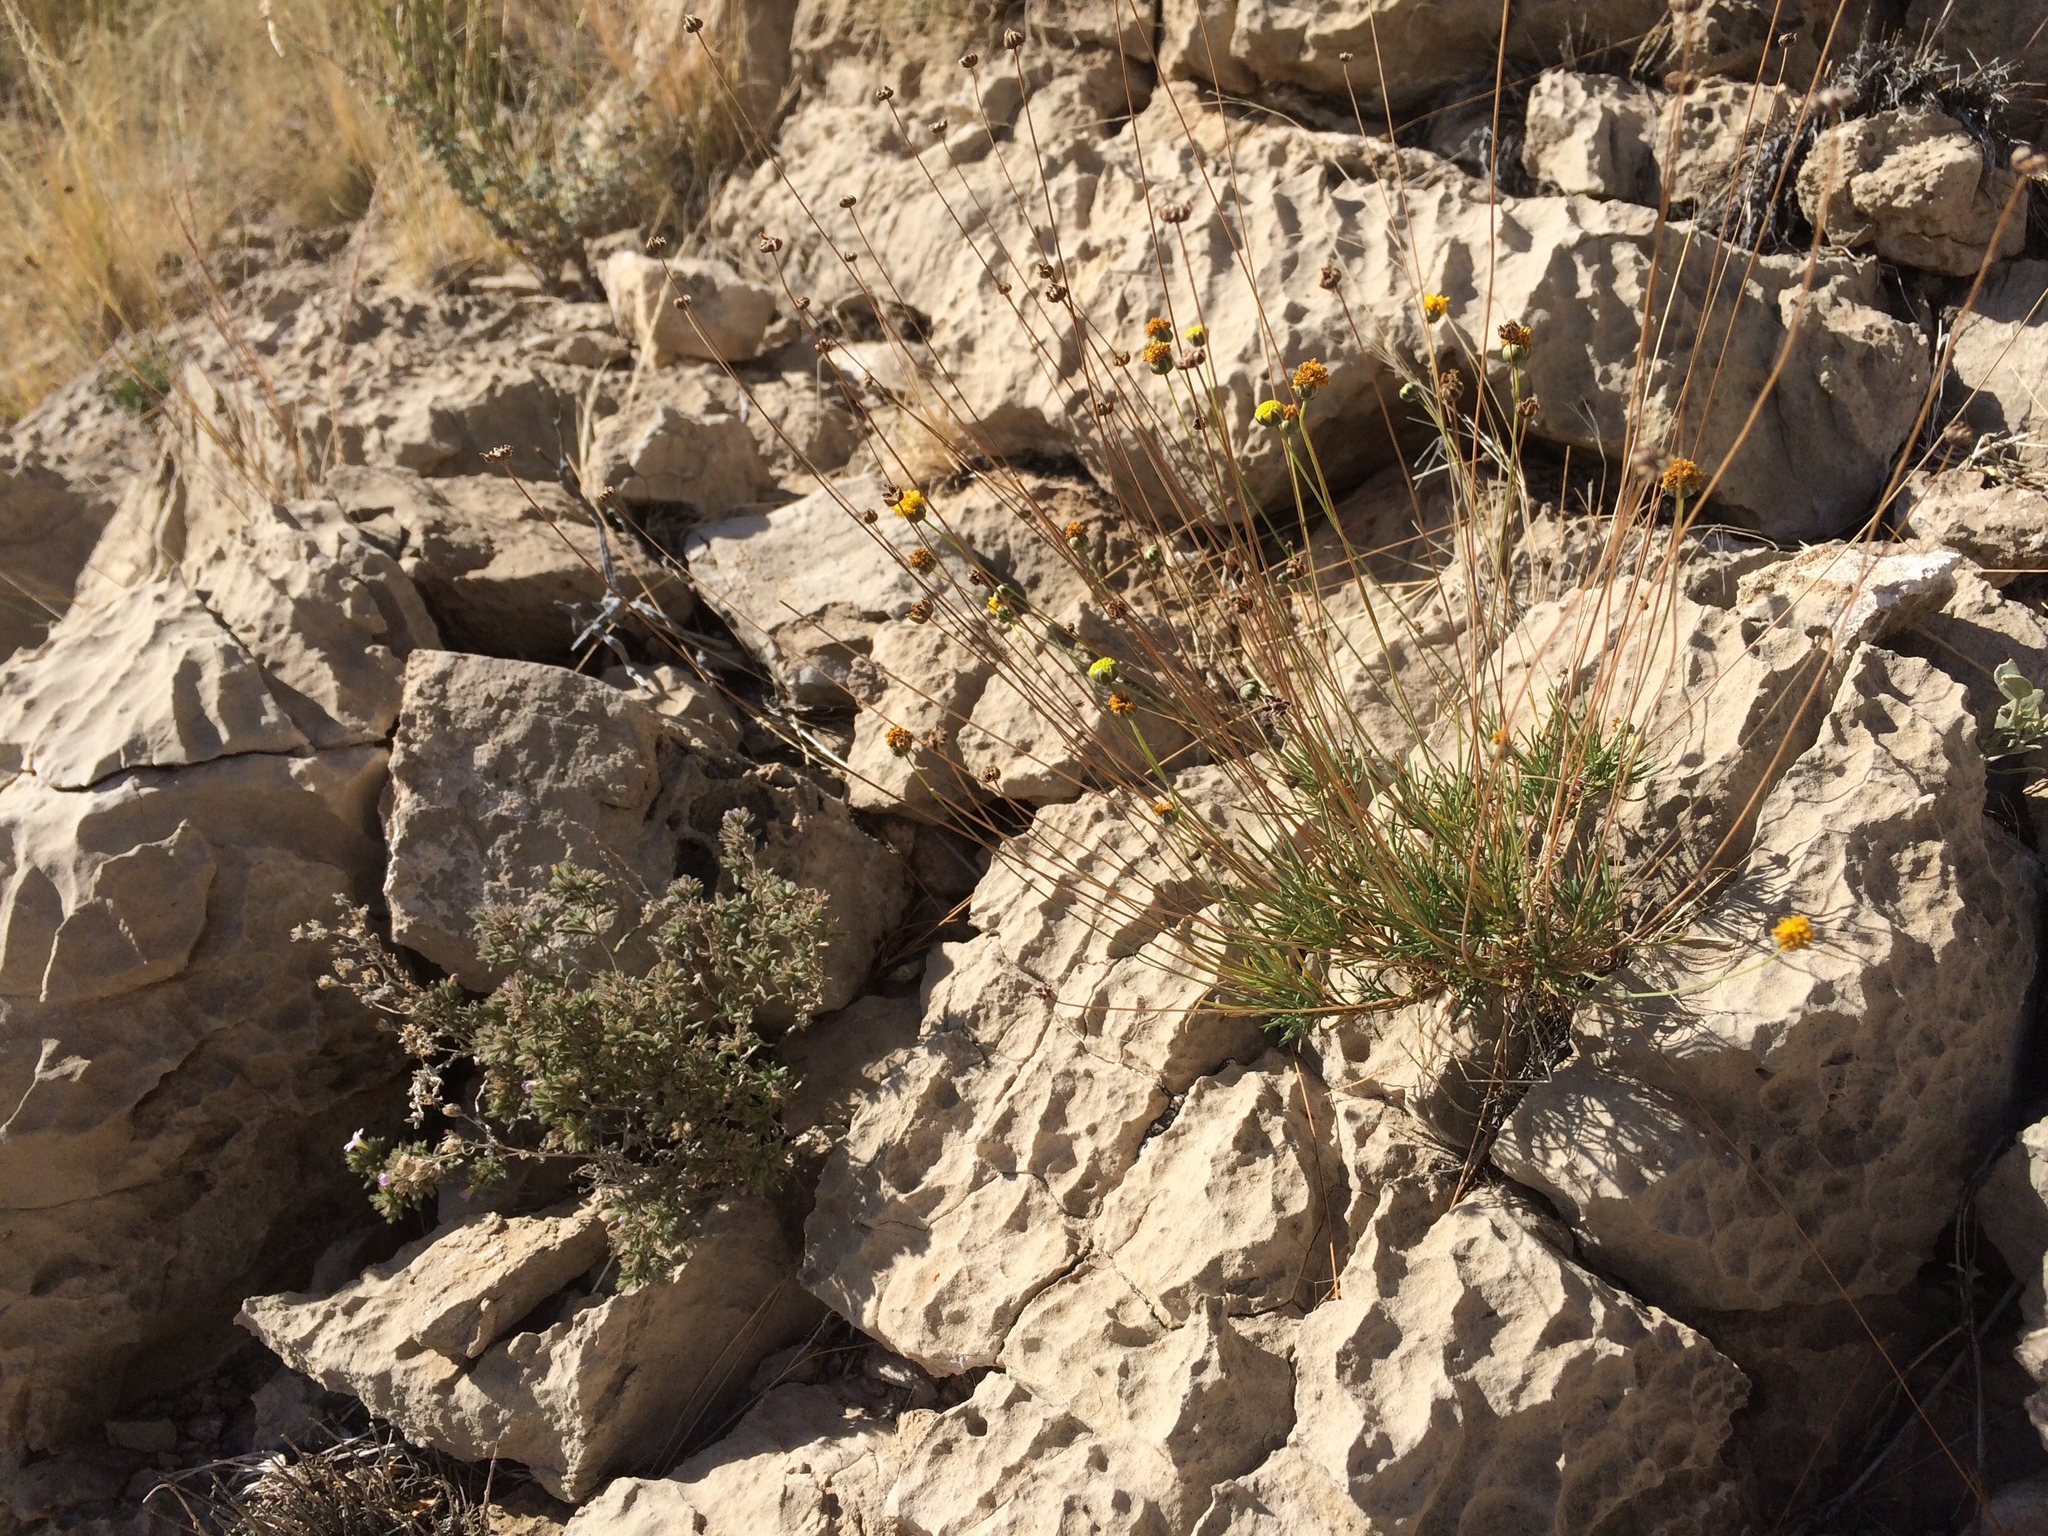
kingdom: Plantae
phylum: Tracheophyta
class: Magnoliopsida
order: Asterales
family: Asteraceae
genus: Thelesperma
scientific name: Thelesperma longipes
